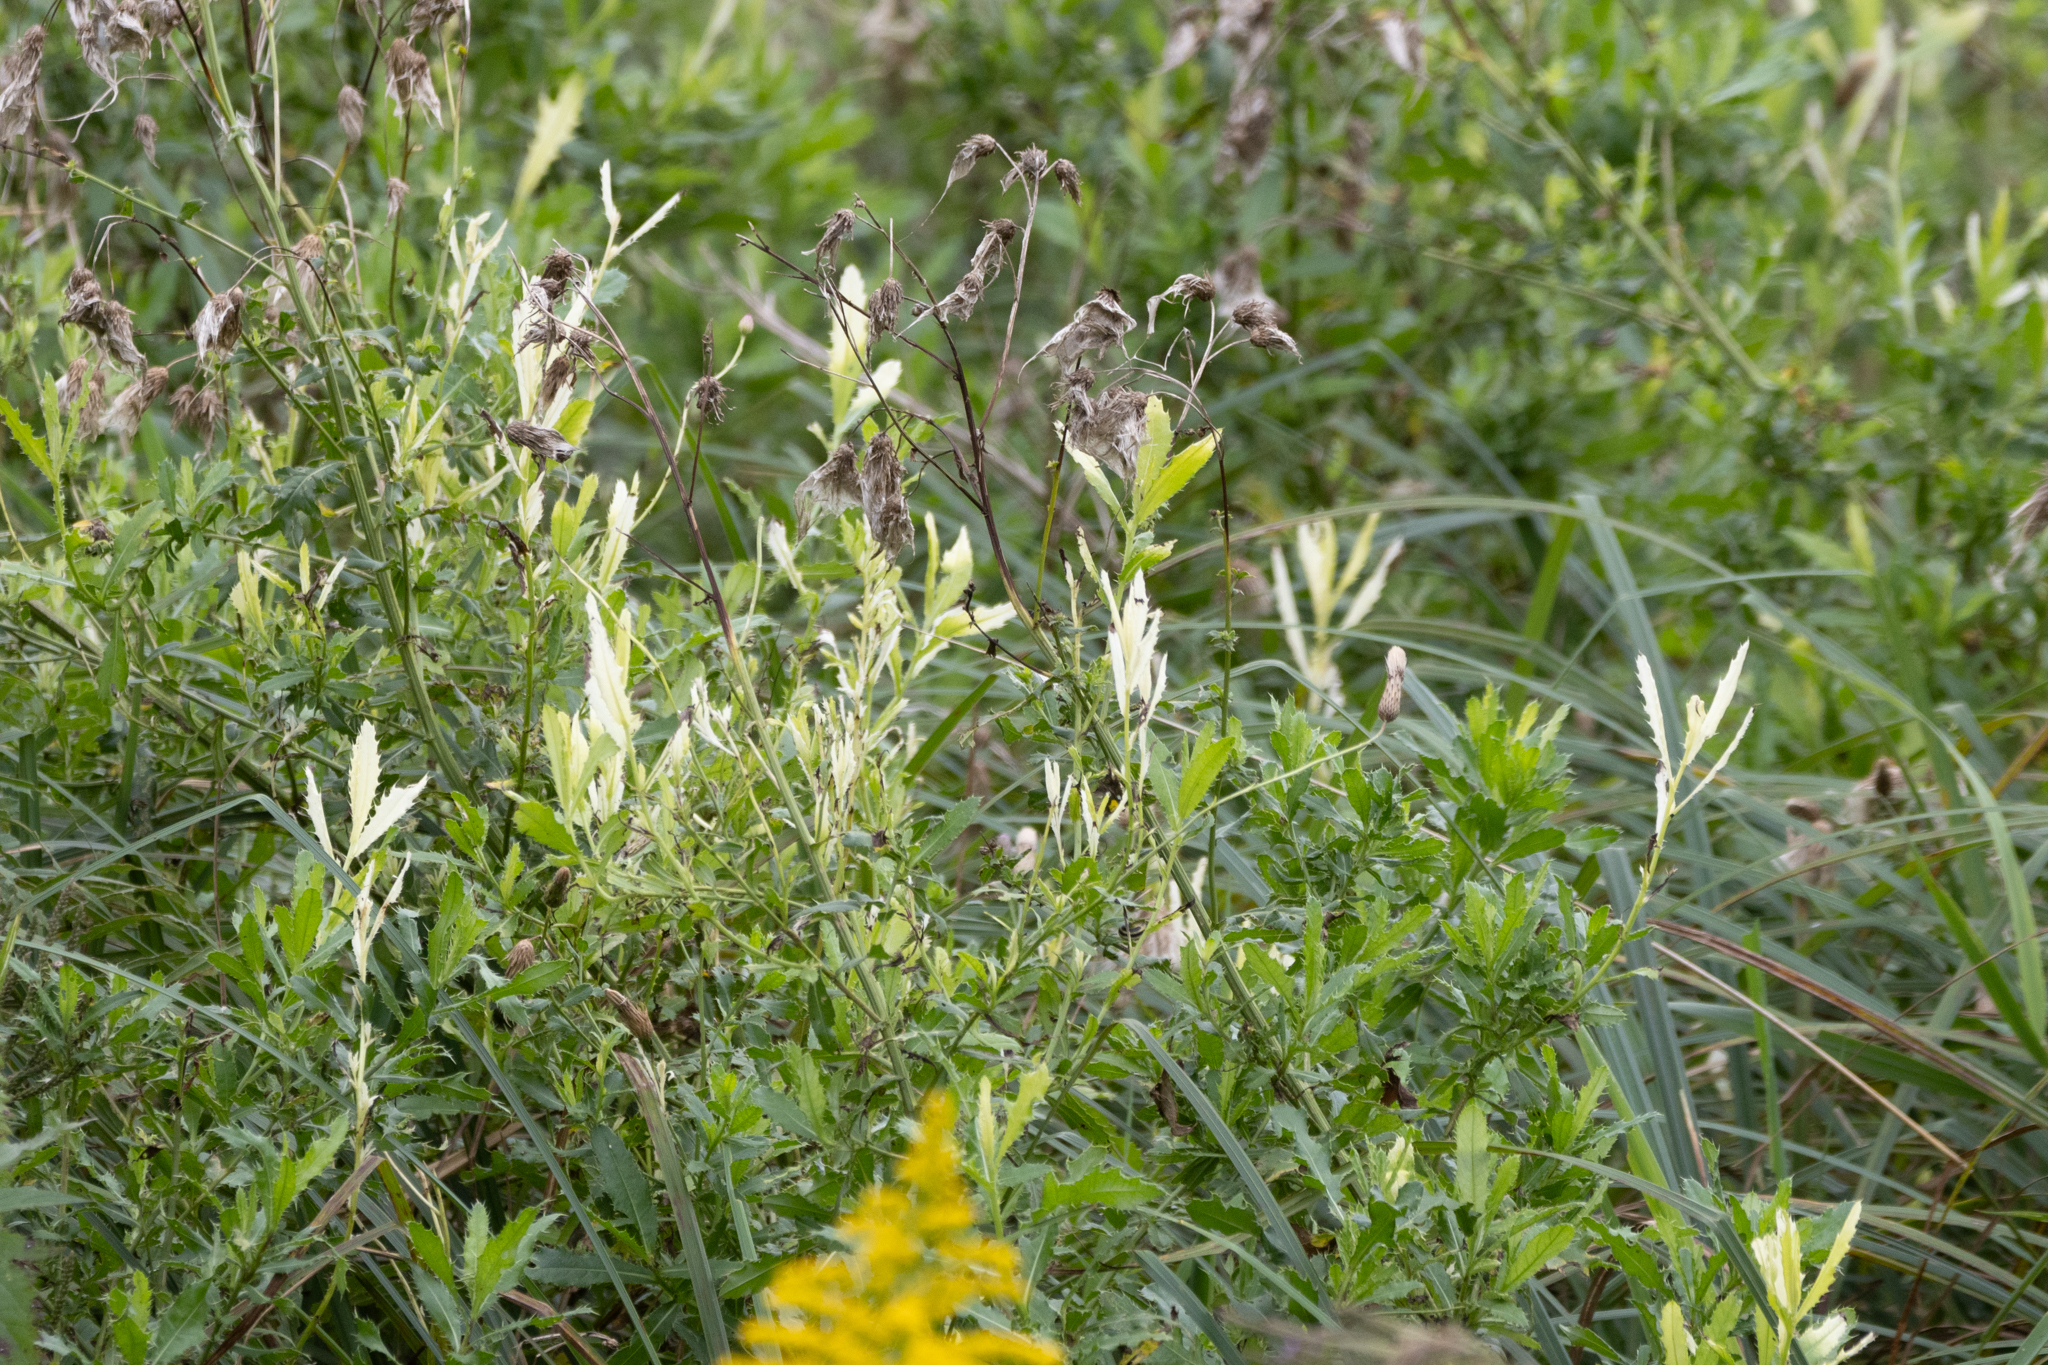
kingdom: Bacteria
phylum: Proteobacteria
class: Gammaproteobacteria
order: Pseudomonadales
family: Pseudomonadaceae
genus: Pseudomonas
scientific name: Pseudomonas syringae
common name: Bacterial speck
